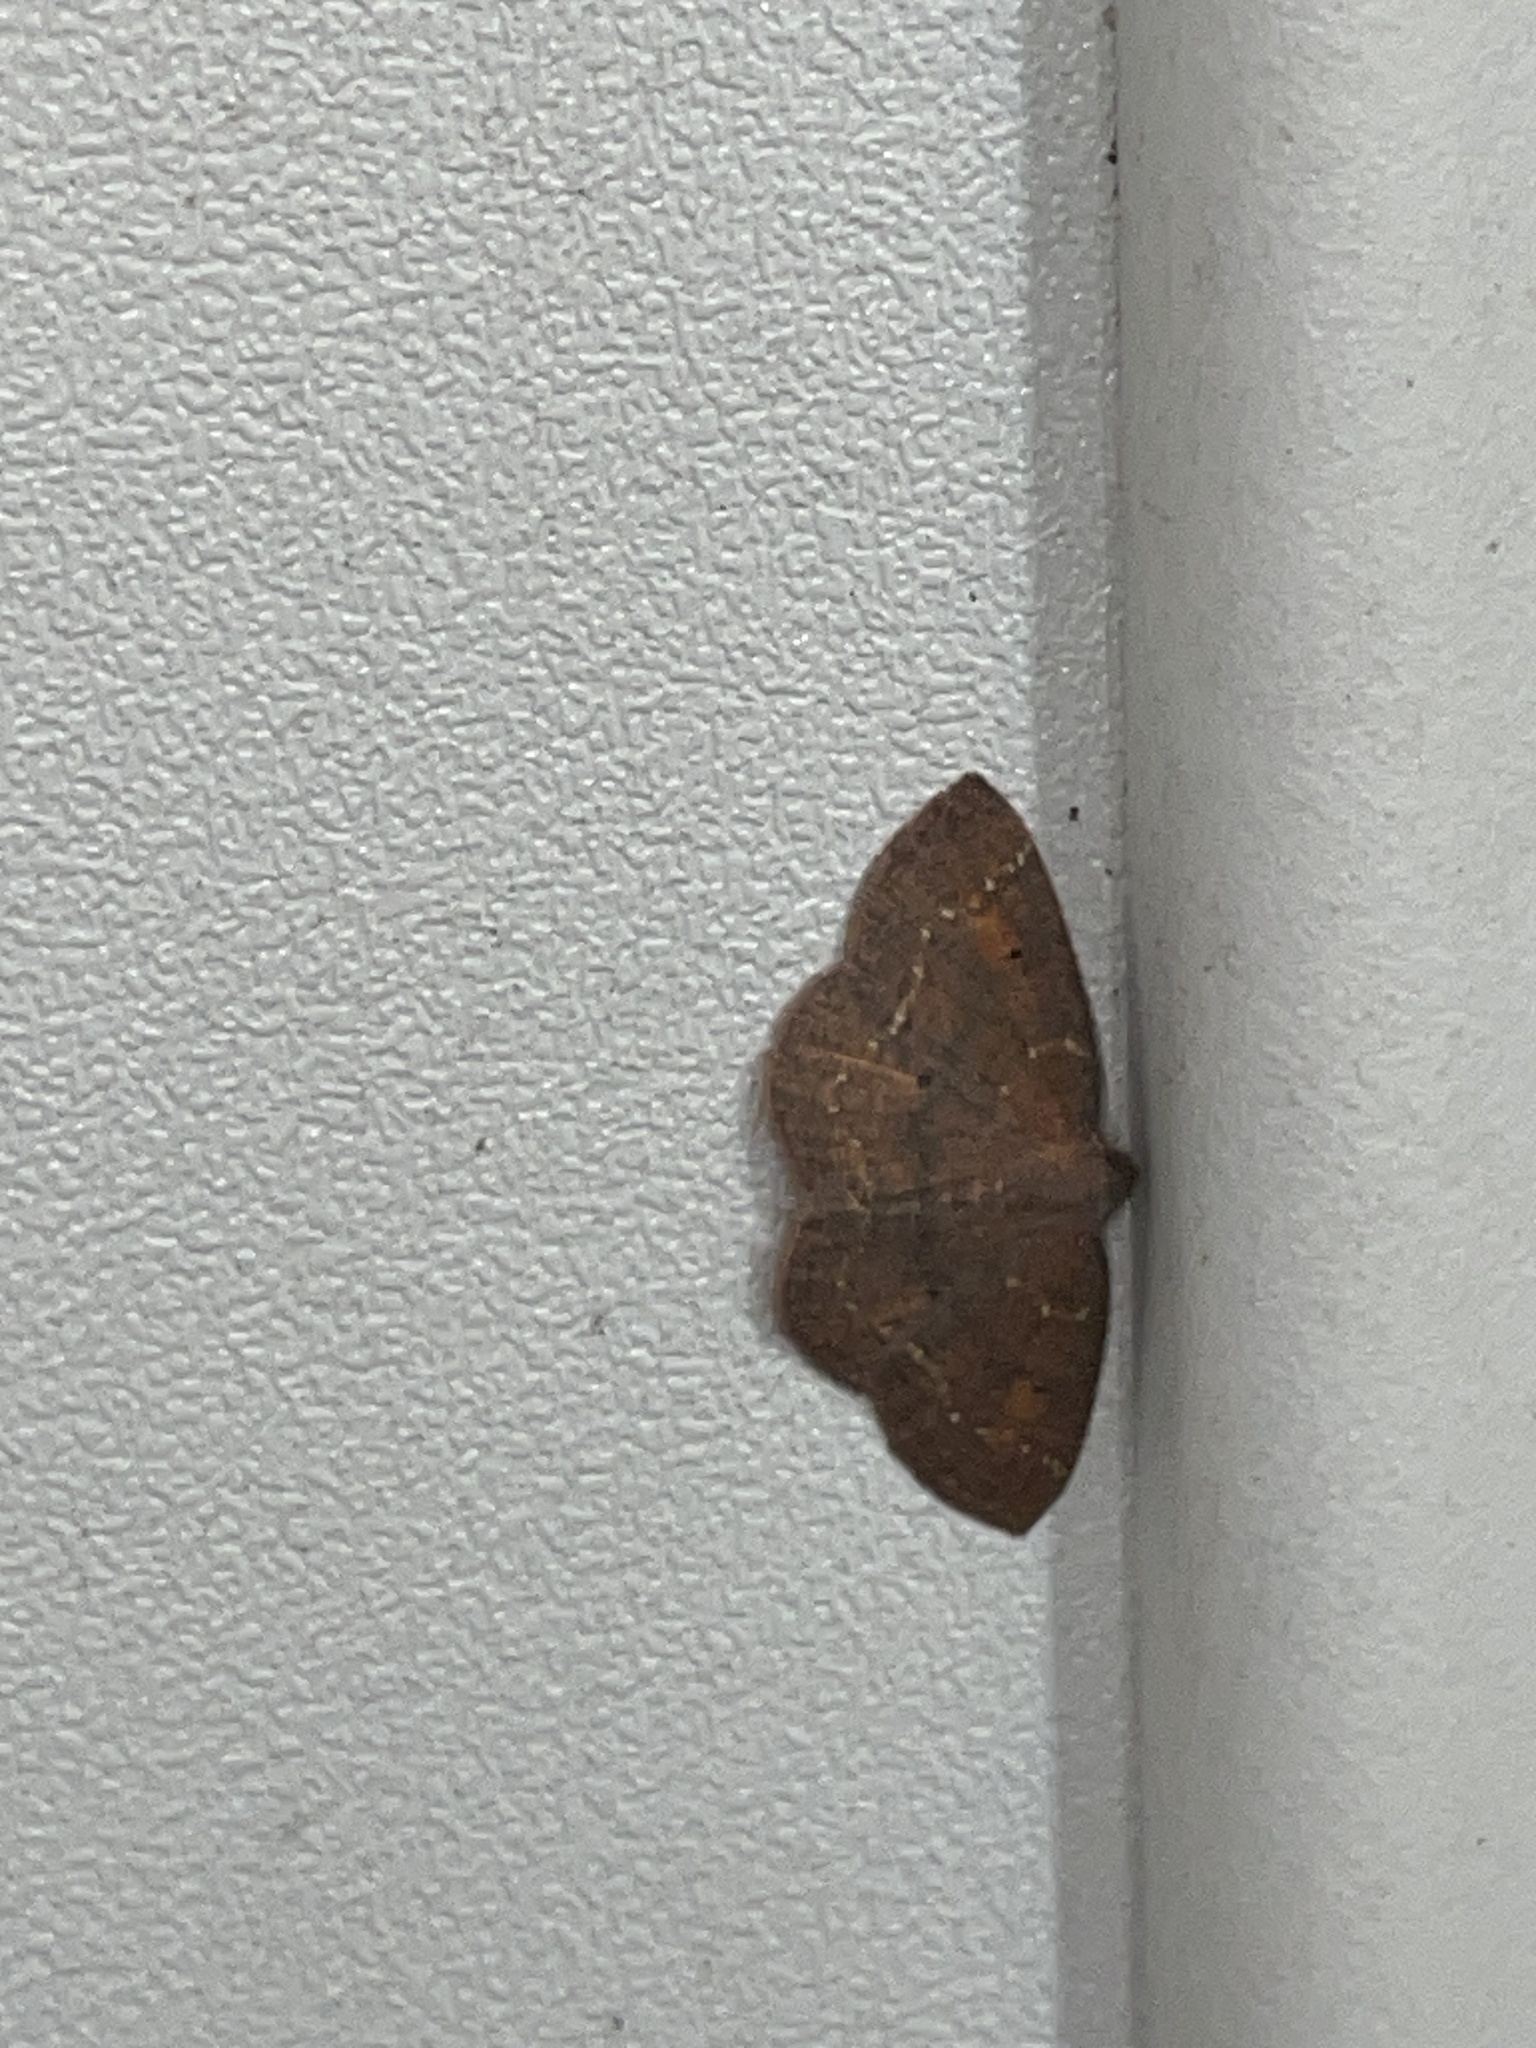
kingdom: Animalia
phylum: Arthropoda
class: Insecta
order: Lepidoptera
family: Geometridae
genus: Ilexia
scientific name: Ilexia intractata
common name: Black-dotted ruddy moth
